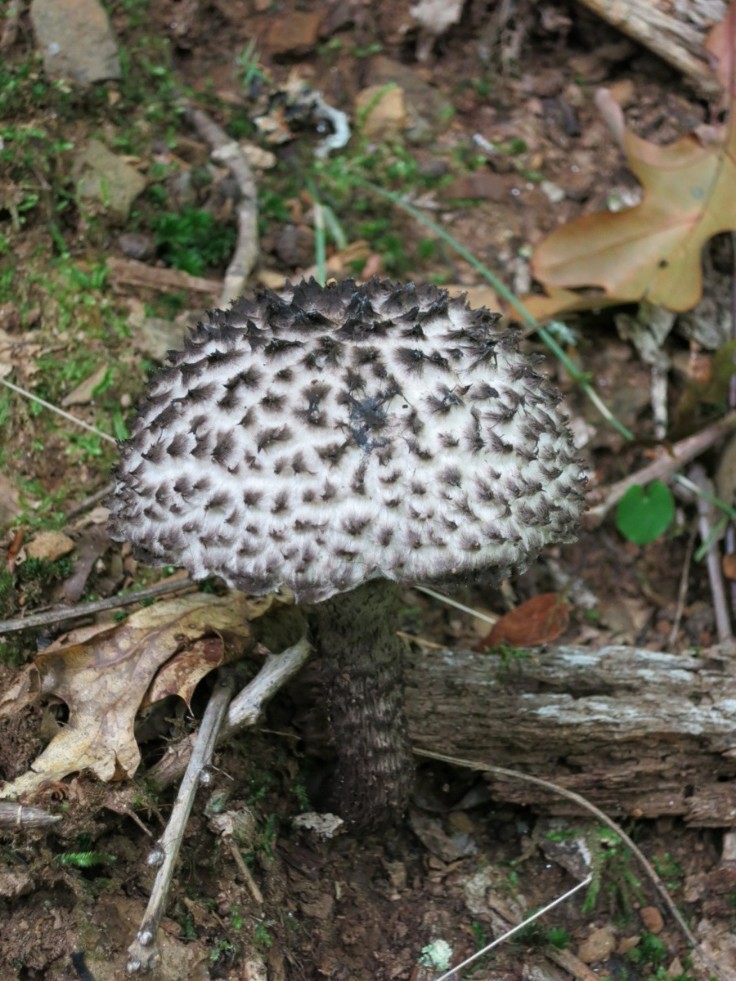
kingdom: Fungi
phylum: Basidiomycota
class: Agaricomycetes
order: Boletales
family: Boletaceae
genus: Strobilomyces
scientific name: Strobilomyces strobilaceus
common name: Old man of the woods
